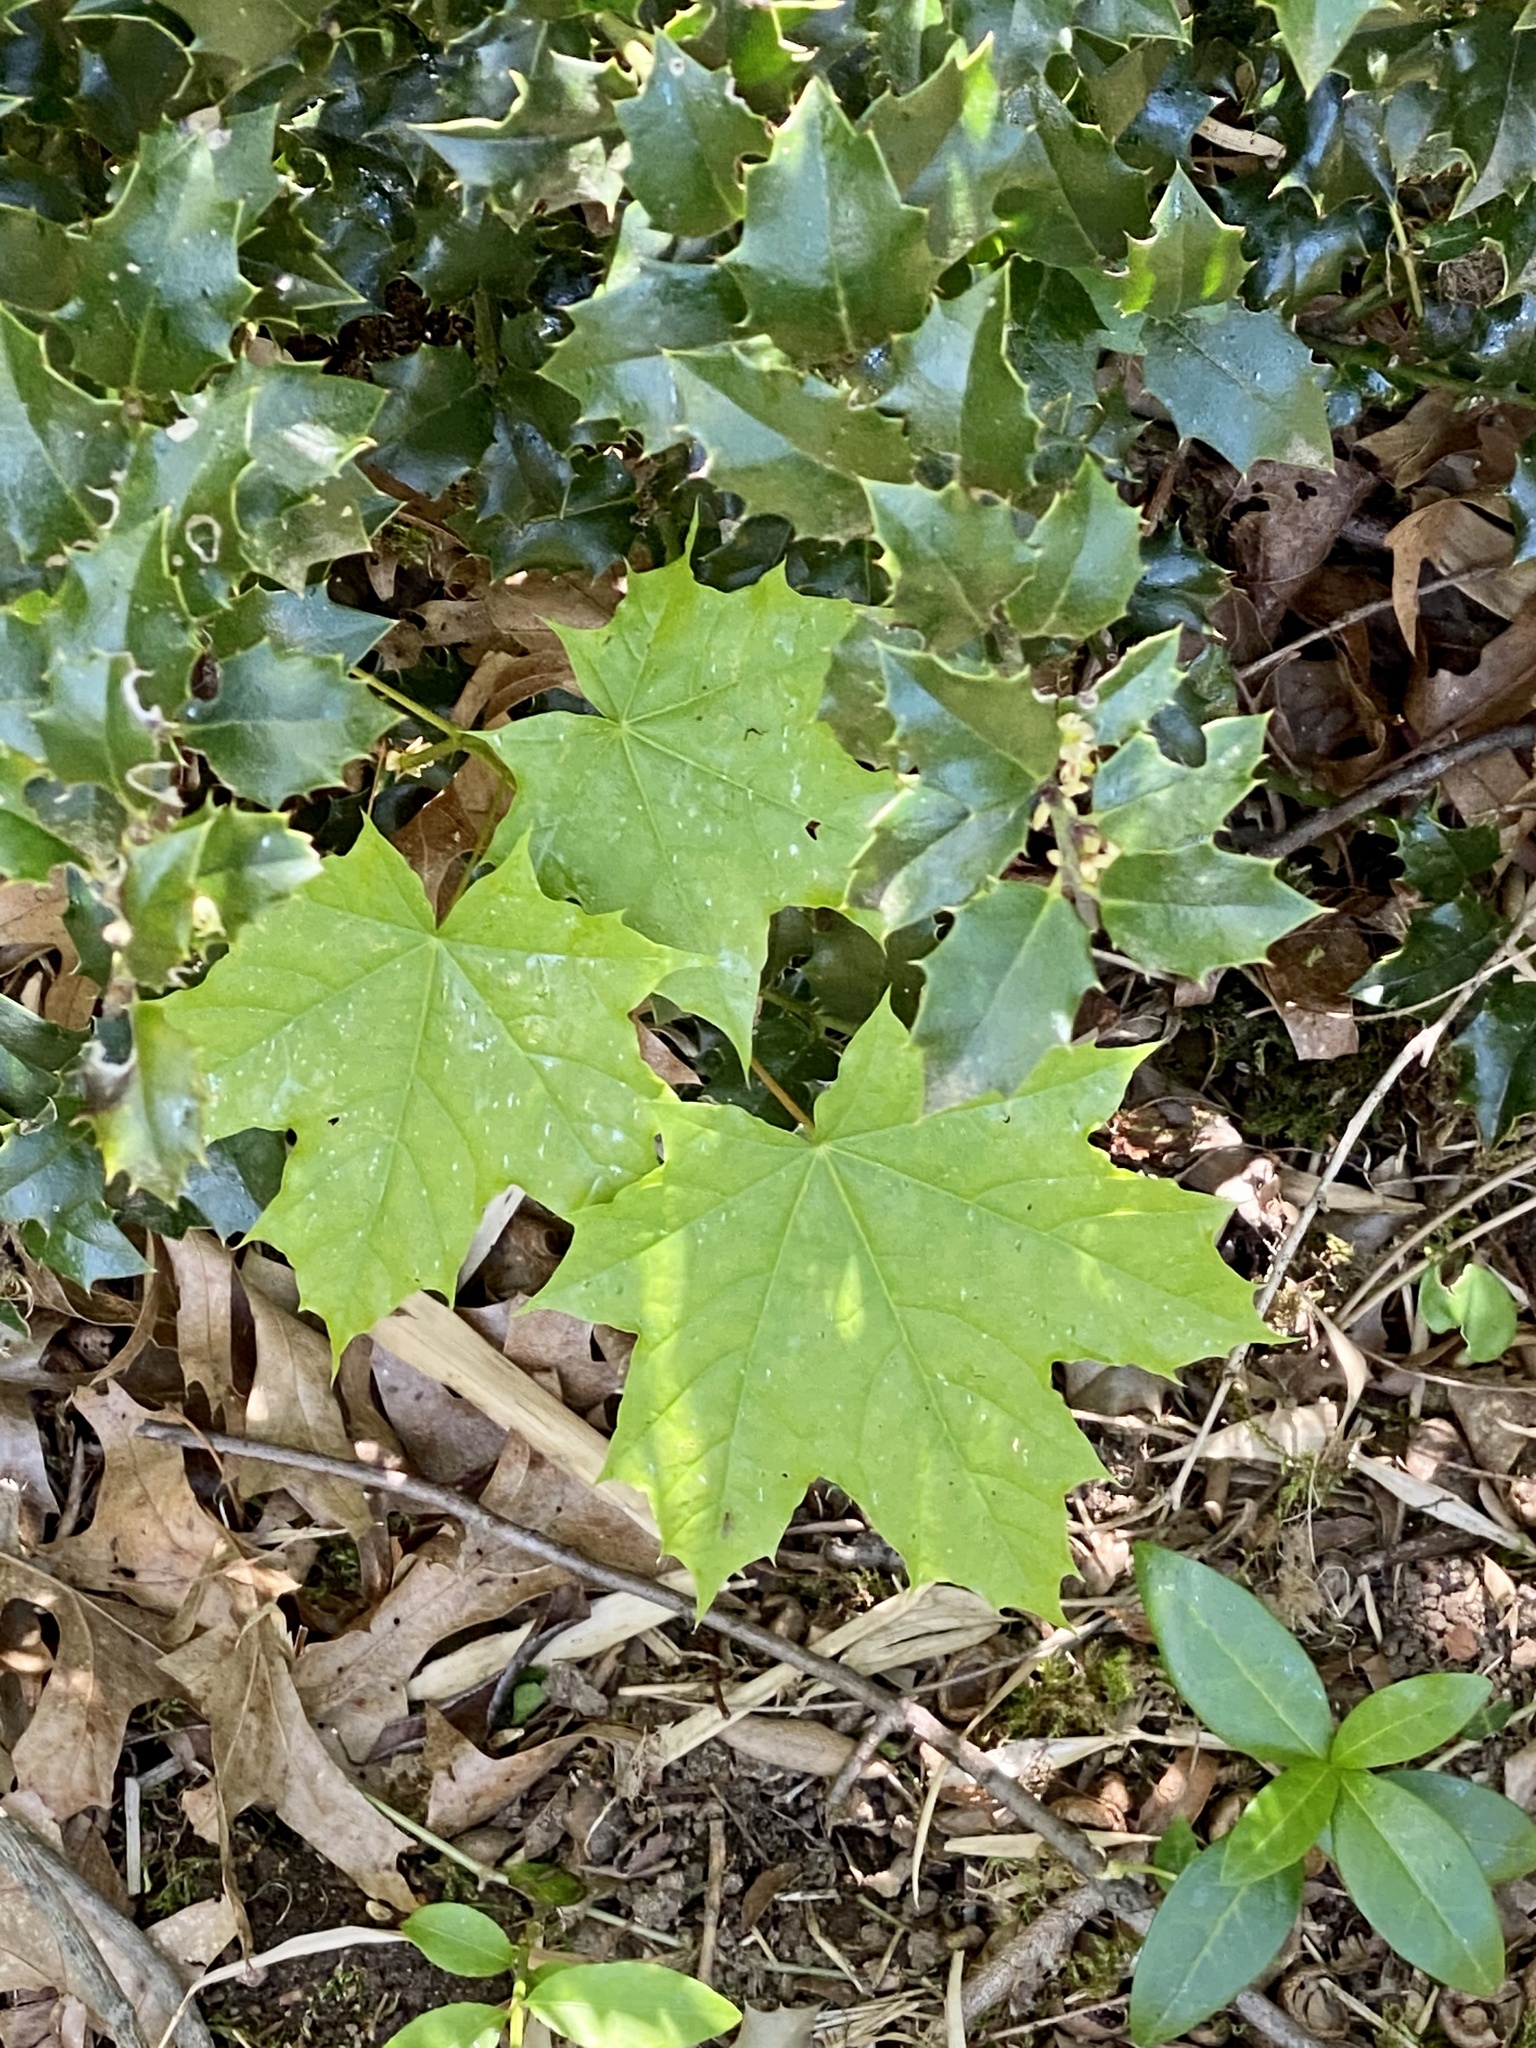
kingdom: Plantae
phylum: Tracheophyta
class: Magnoliopsida
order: Sapindales
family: Sapindaceae
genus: Acer
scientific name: Acer platanoides
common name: Norway maple
